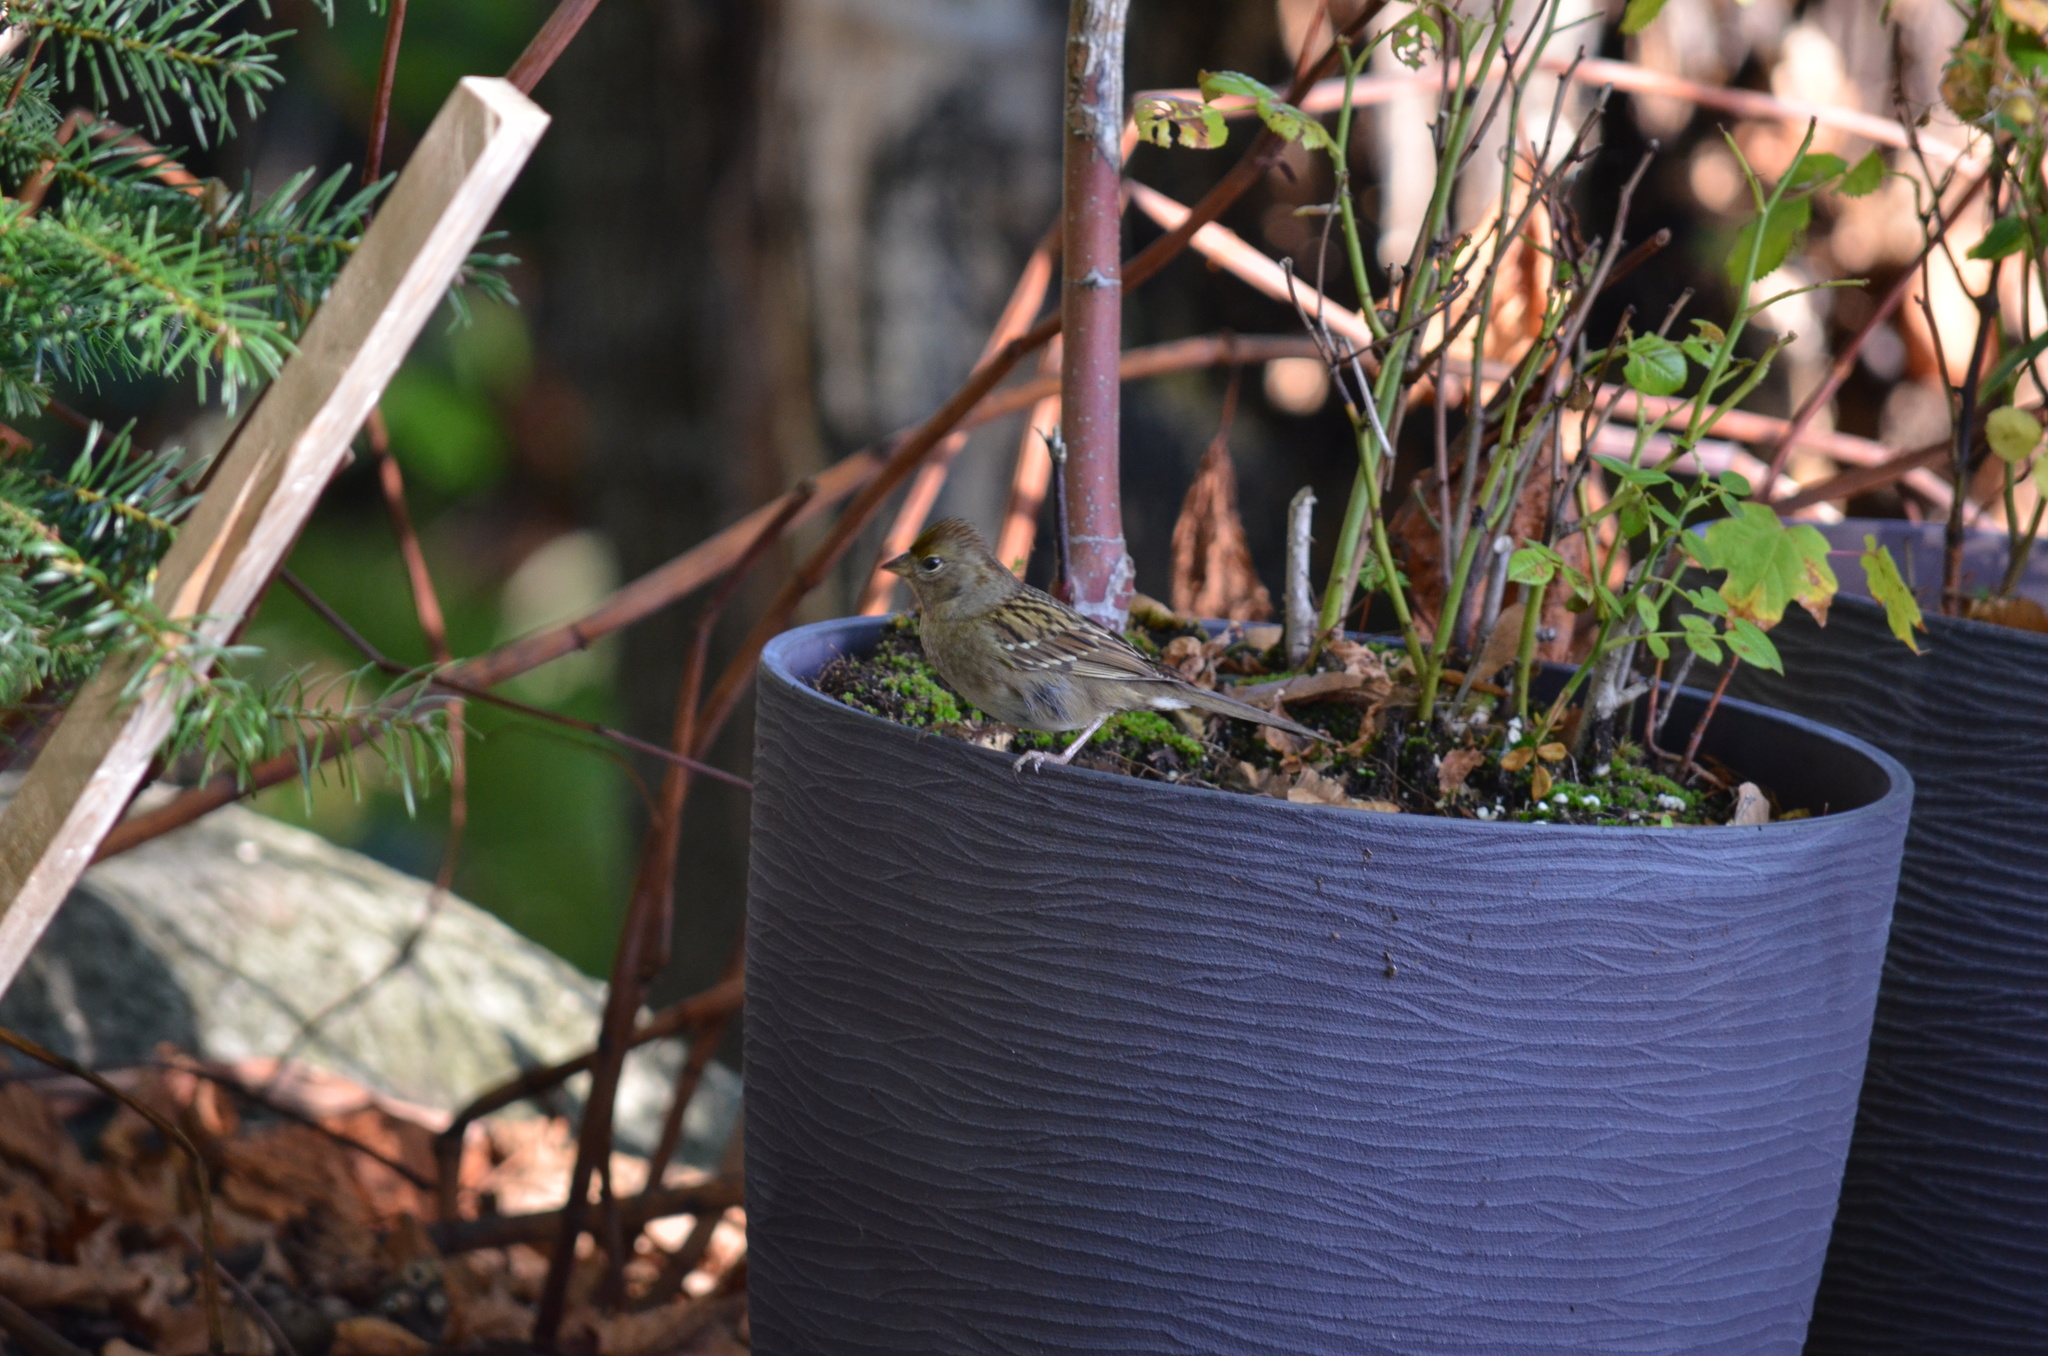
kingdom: Animalia
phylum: Chordata
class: Aves
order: Passeriformes
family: Passerellidae
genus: Zonotrichia
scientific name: Zonotrichia atricapilla
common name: Golden-crowned sparrow
